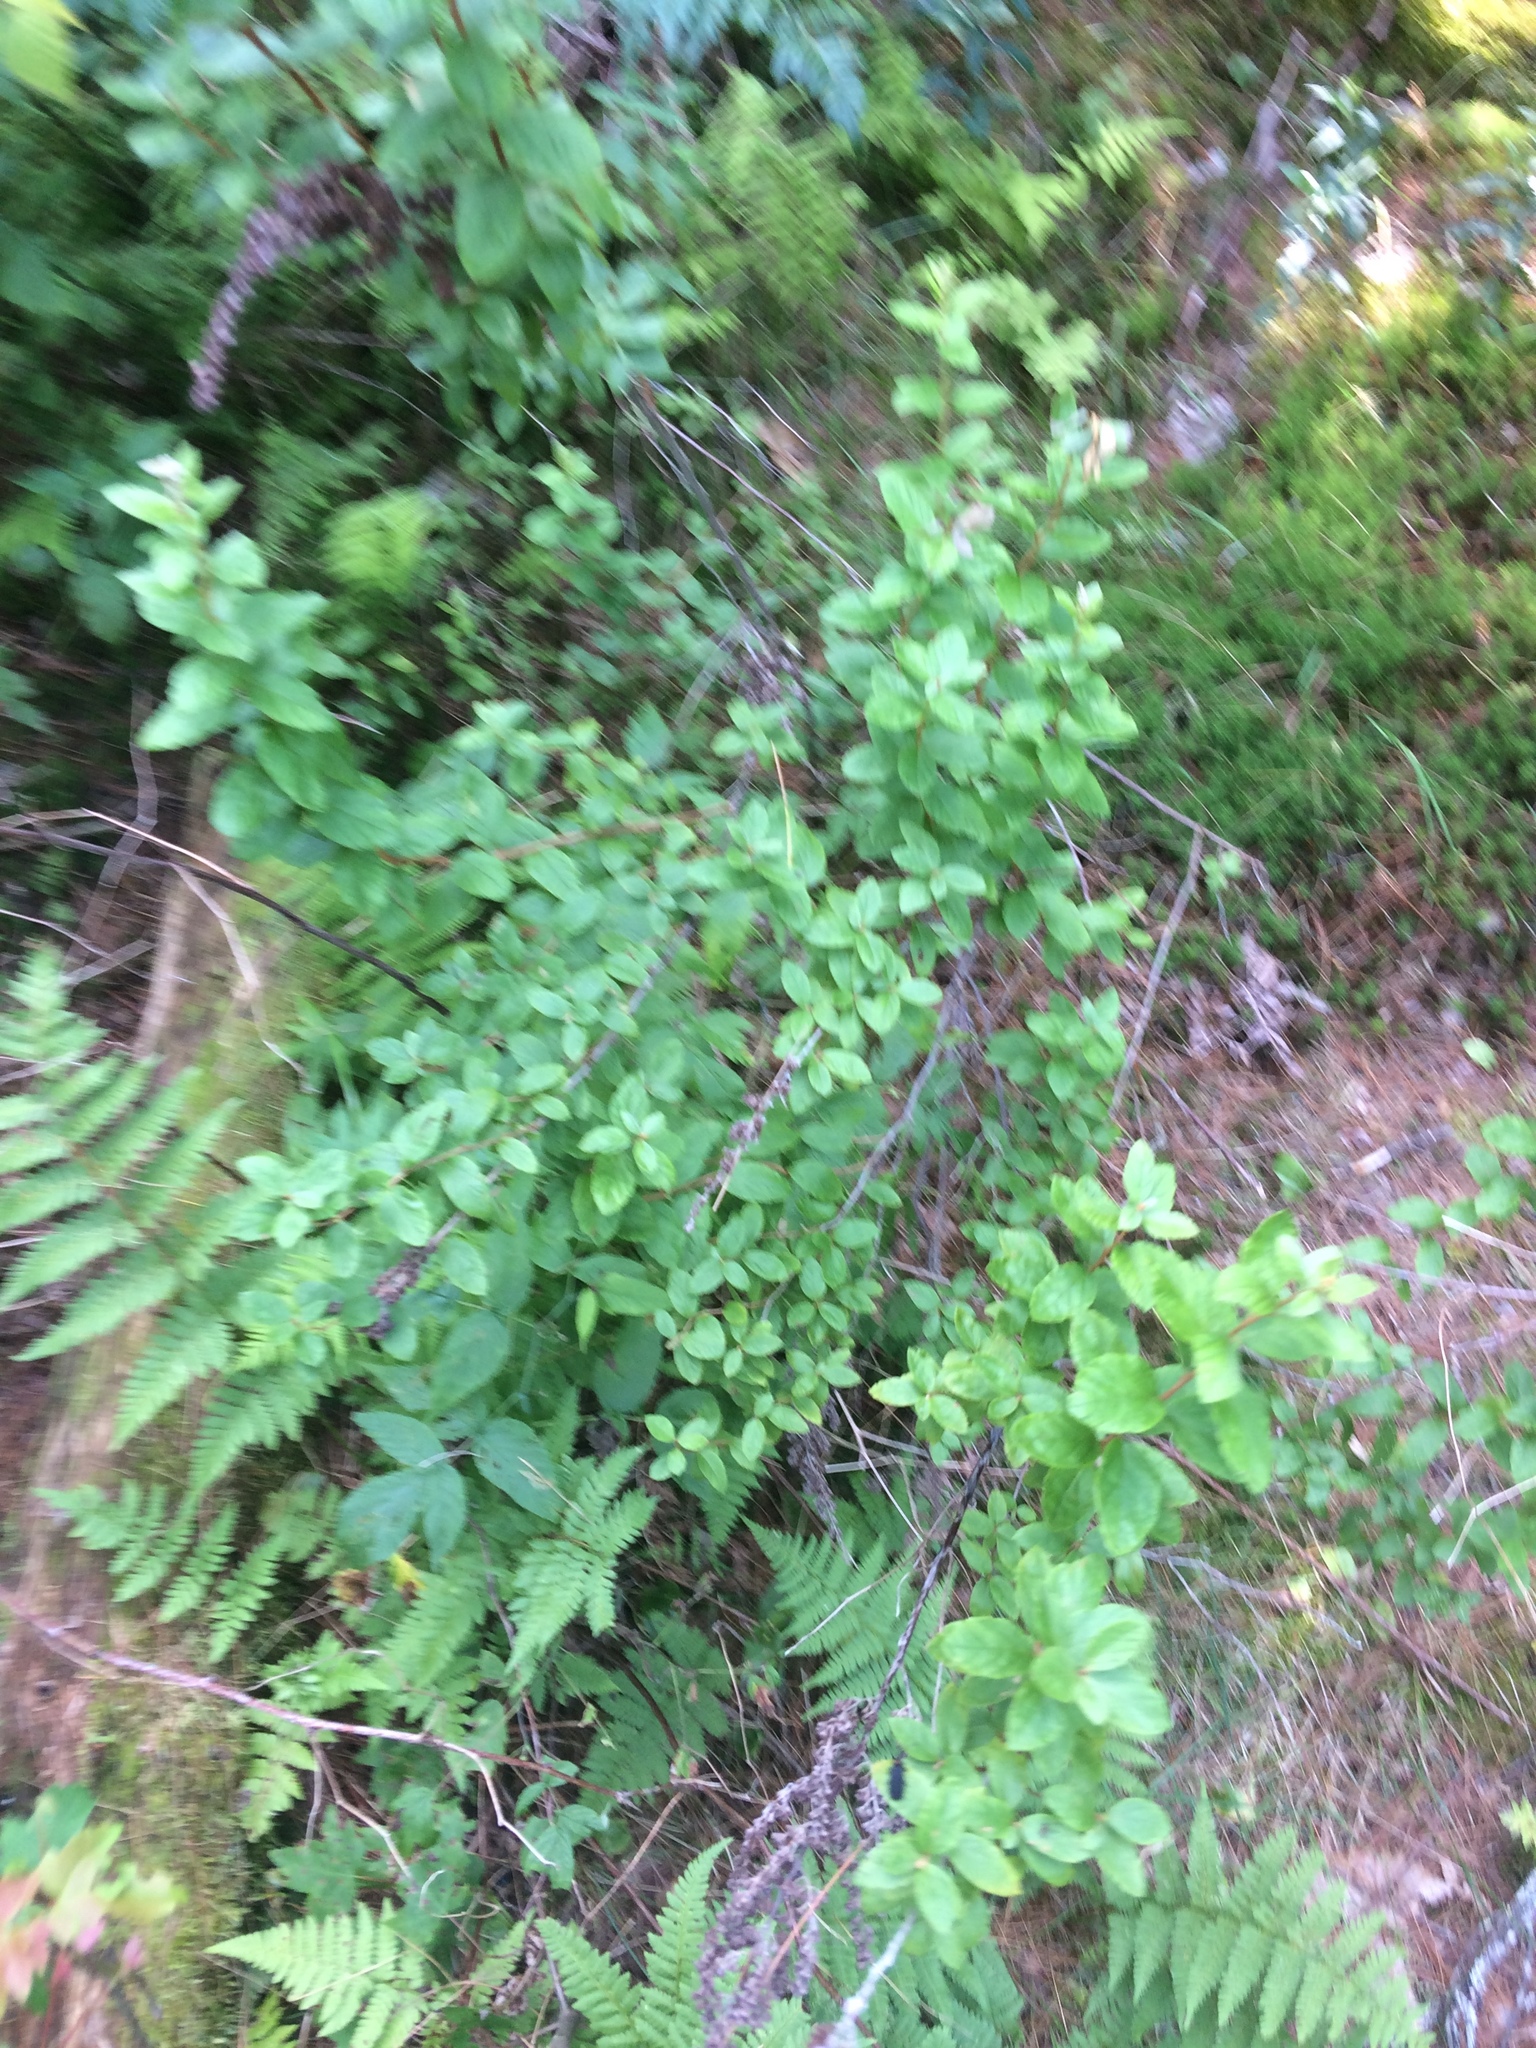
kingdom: Plantae
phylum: Tracheophyta
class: Magnoliopsida
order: Rosales
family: Rosaceae
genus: Spiraea
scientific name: Spiraea alba
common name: Pale bridewort
